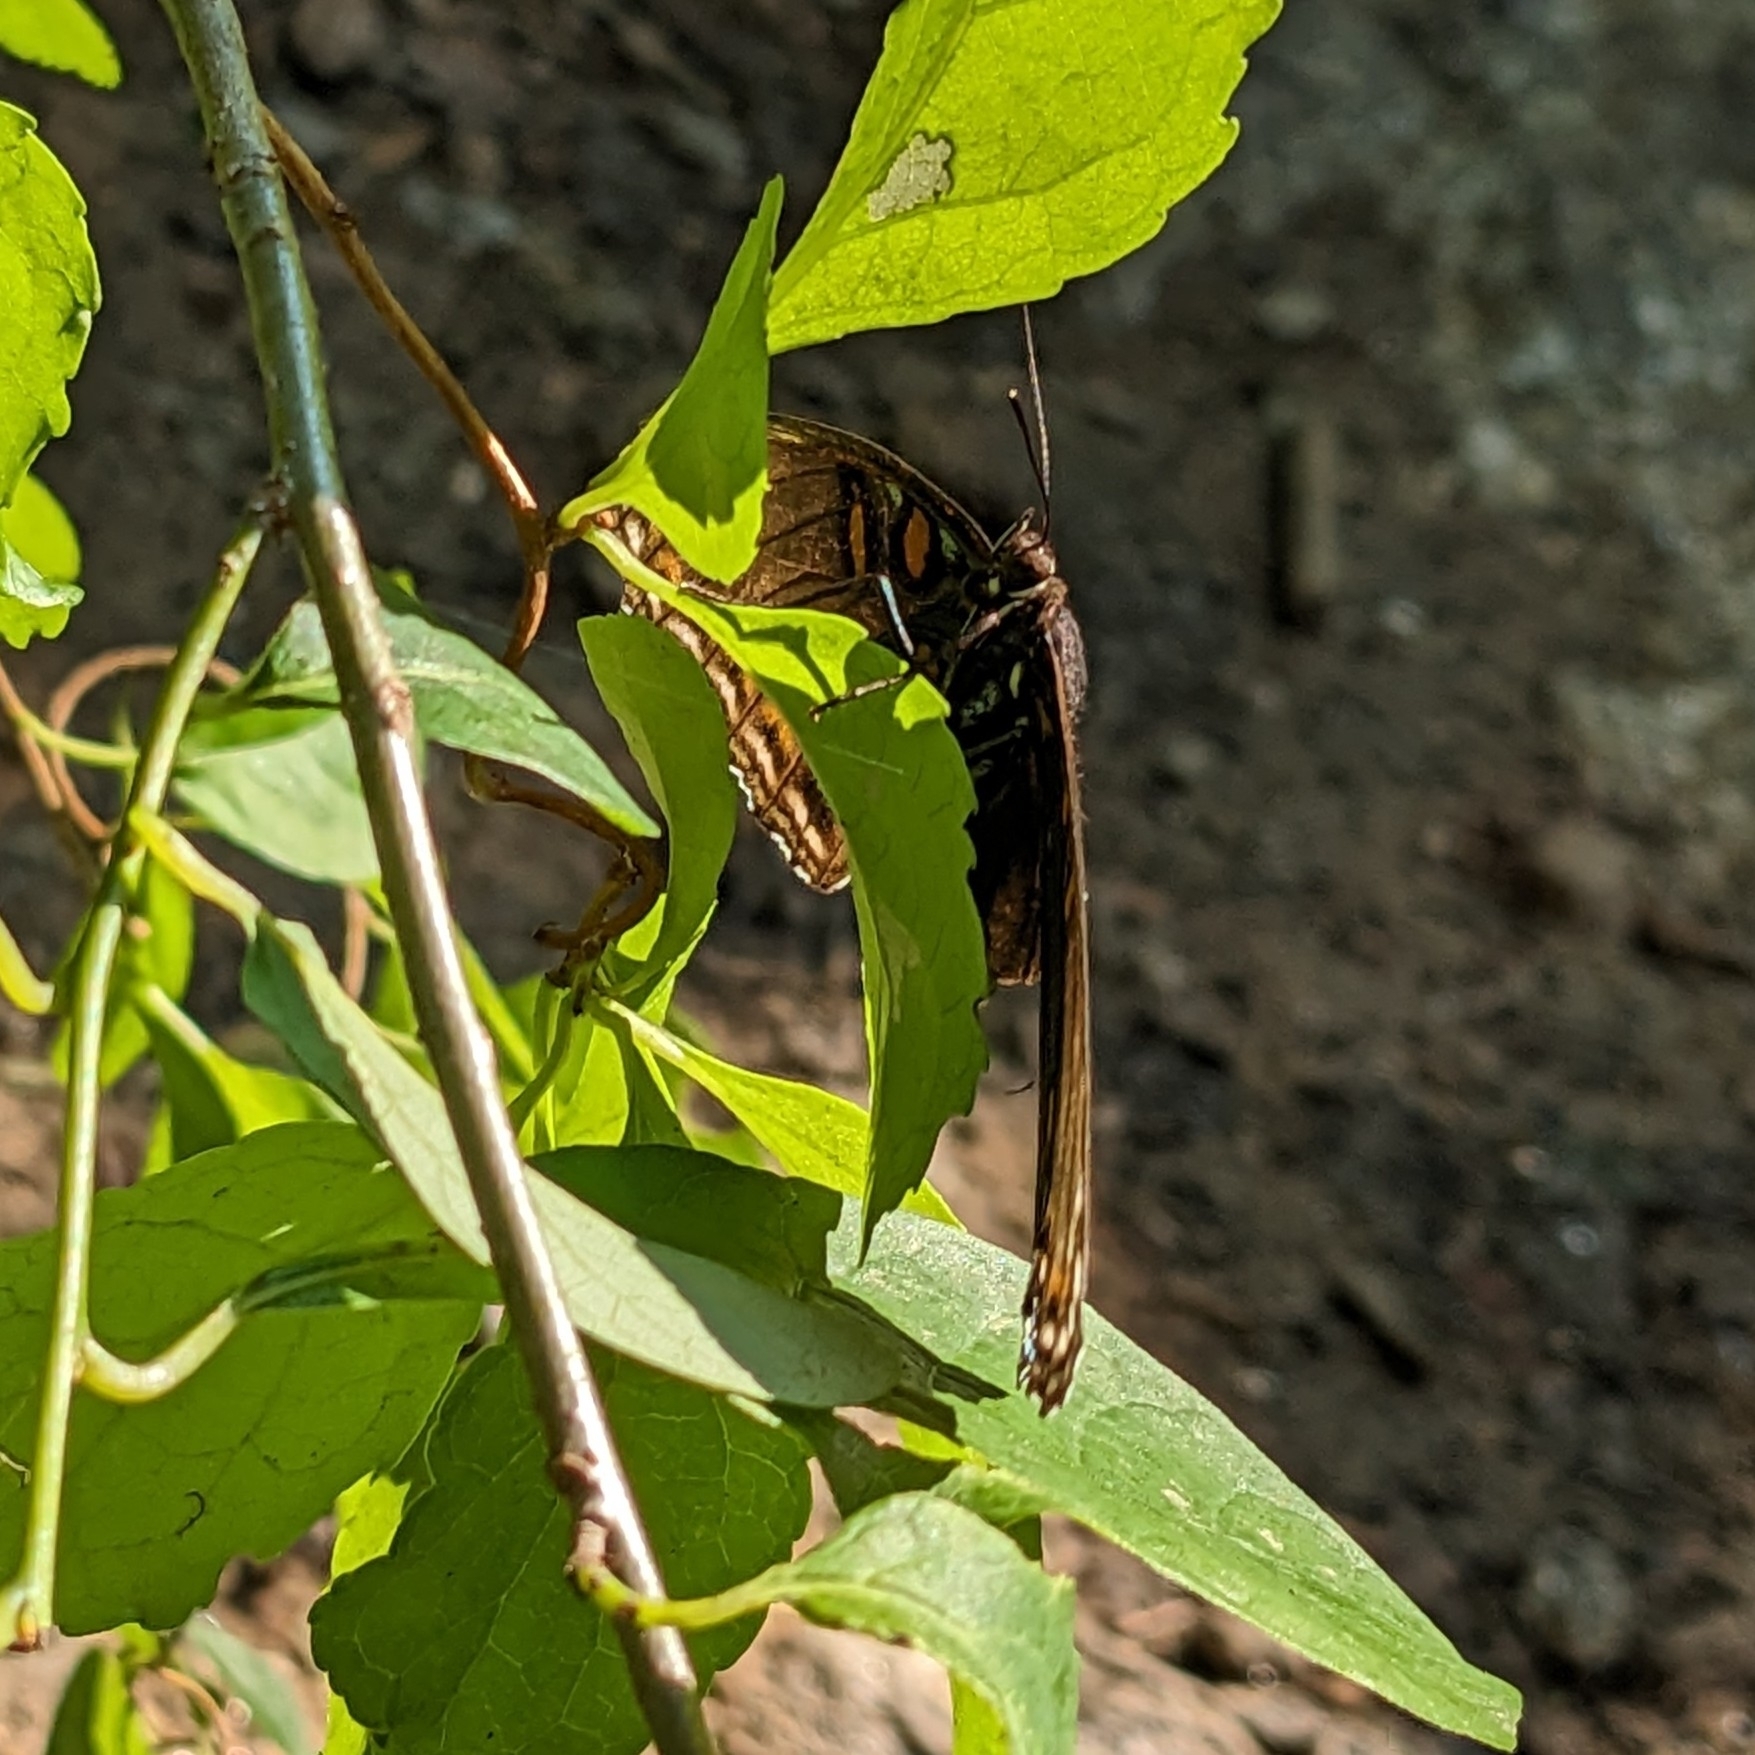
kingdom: Animalia
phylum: Arthropoda
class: Insecta
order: Lepidoptera
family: Nymphalidae
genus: Limenitis
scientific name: Limenitis arthemis
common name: Red-spotted admiral
